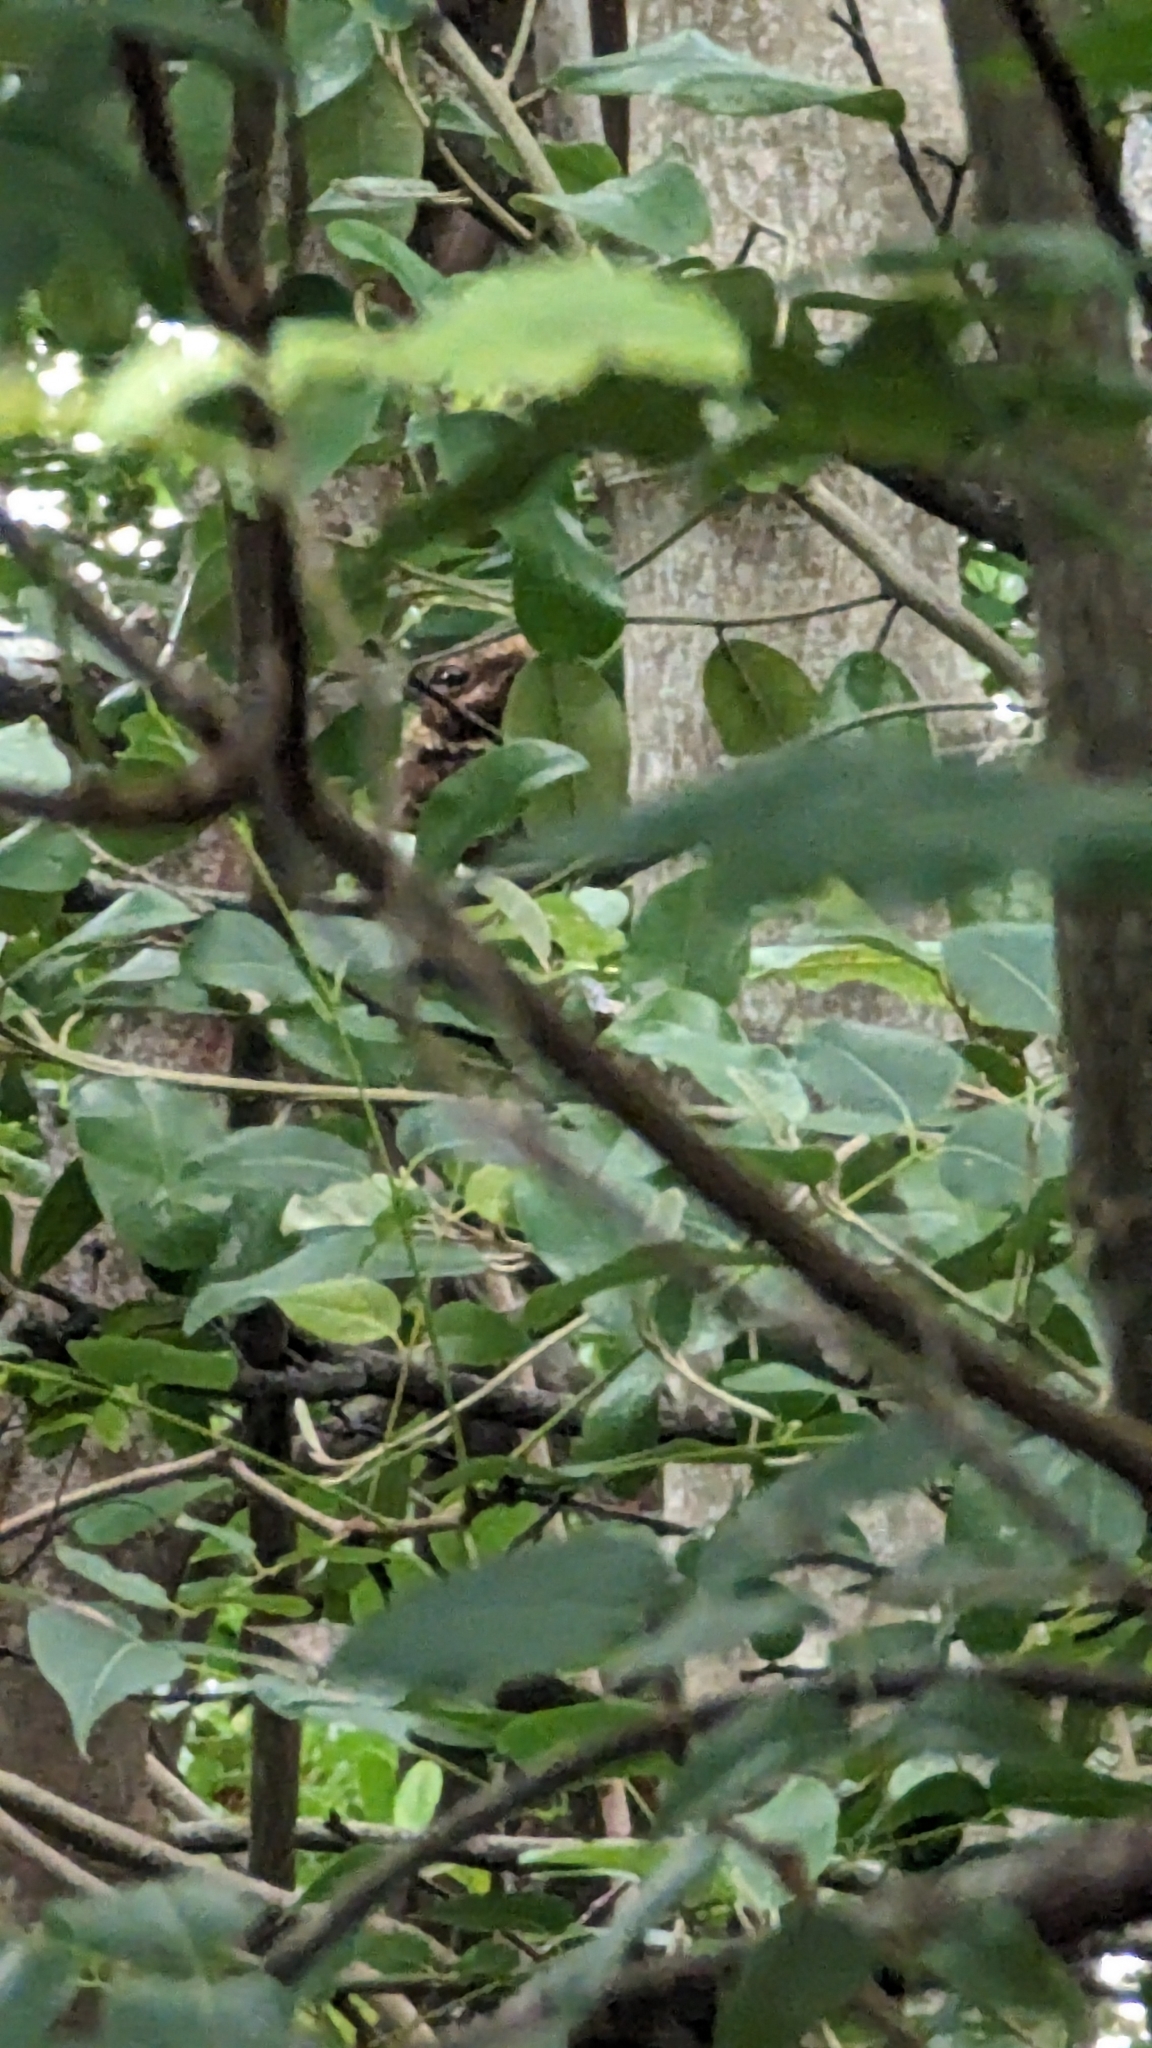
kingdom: Animalia
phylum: Chordata
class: Aves
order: Caprimulgiformes
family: Caprimulgidae
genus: Antrostomus
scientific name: Antrostomus carolinensis
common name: Chuck-will's-widow
